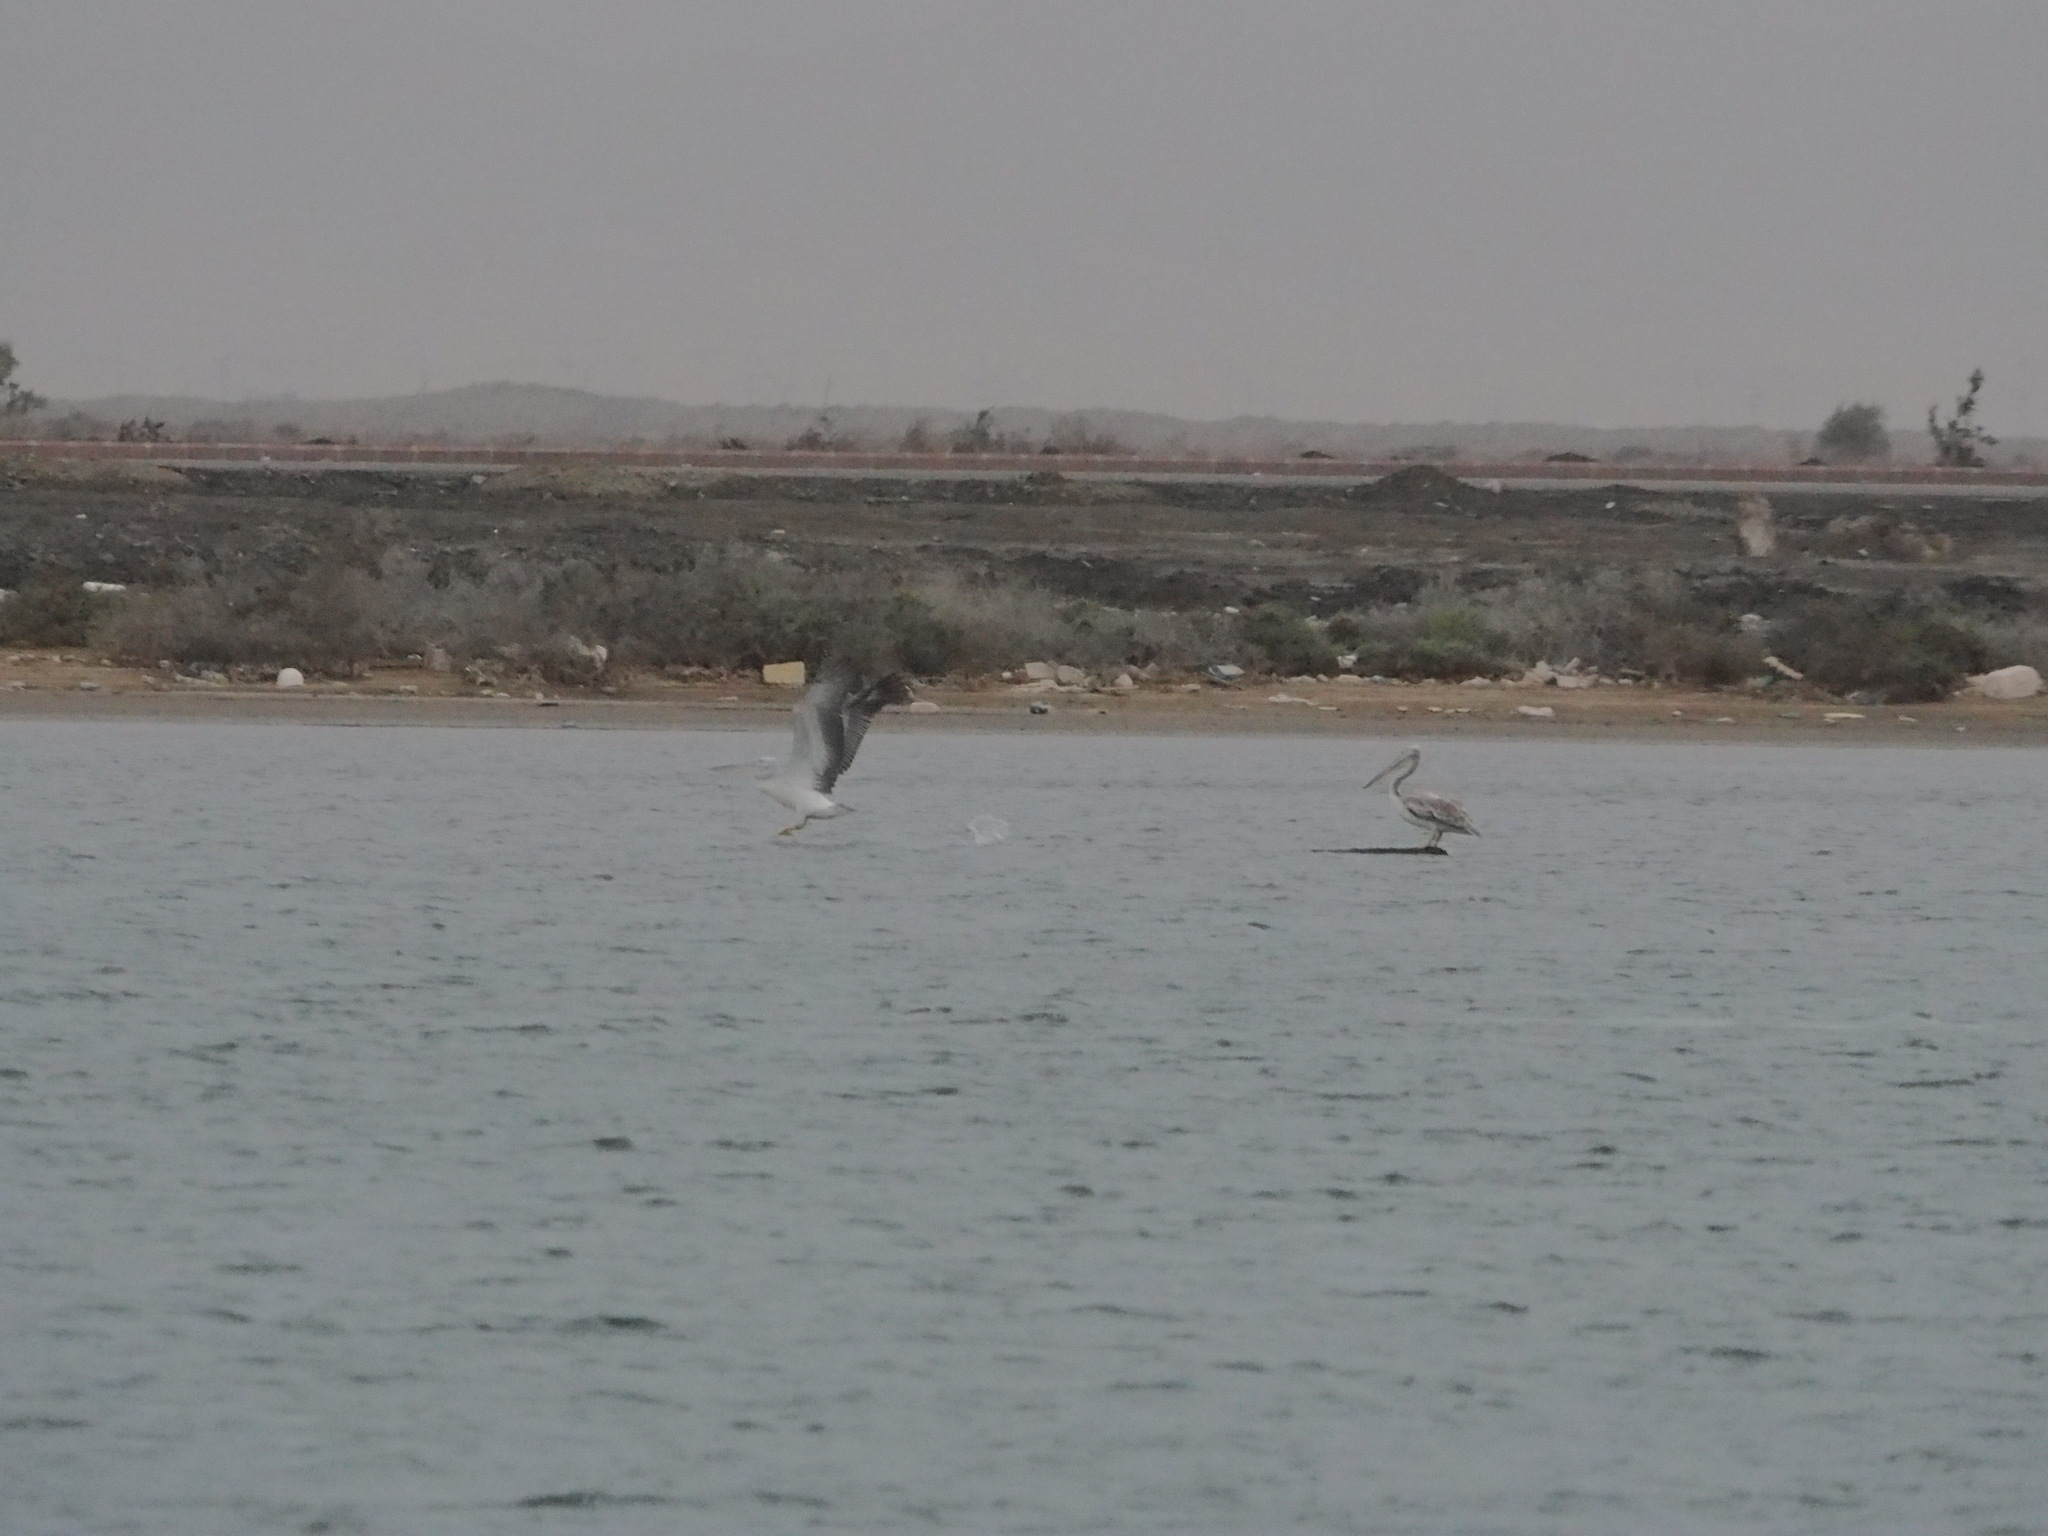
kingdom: Animalia
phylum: Chordata
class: Aves
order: Pelecaniformes
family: Pelecanidae
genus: Pelecanus
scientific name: Pelecanus rufescens
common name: Pink-backed pelican
